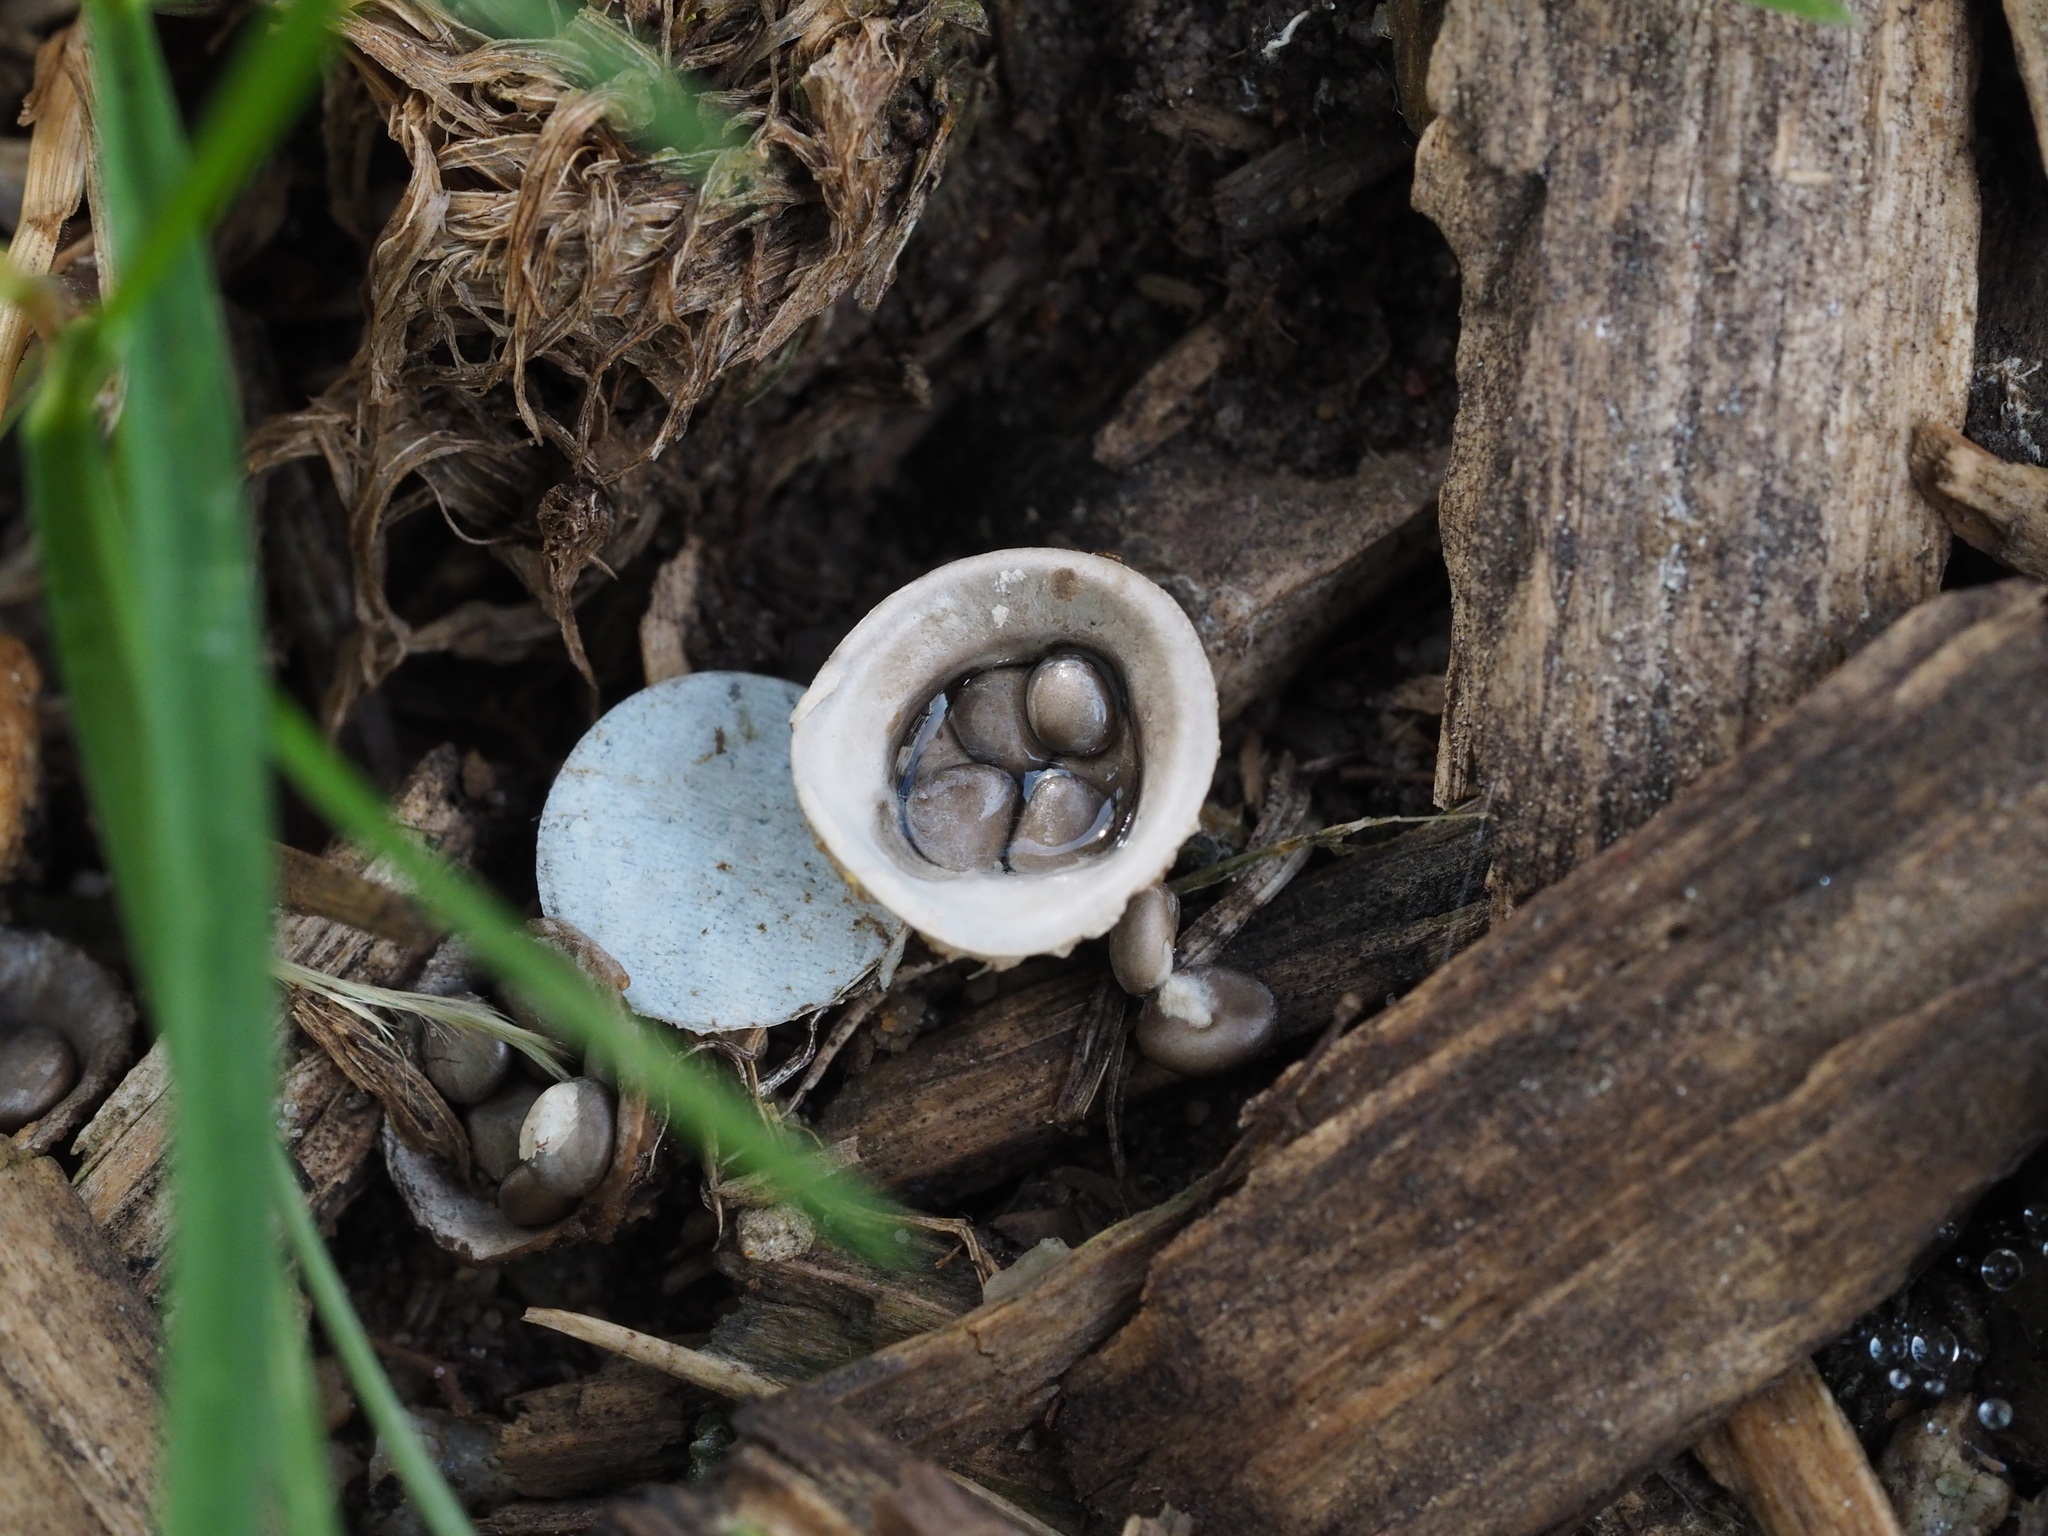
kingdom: Fungi
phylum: Basidiomycota
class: Agaricomycetes
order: Agaricales
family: Agaricaceae
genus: Cyathus
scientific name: Cyathus olla
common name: Field bird's nest
